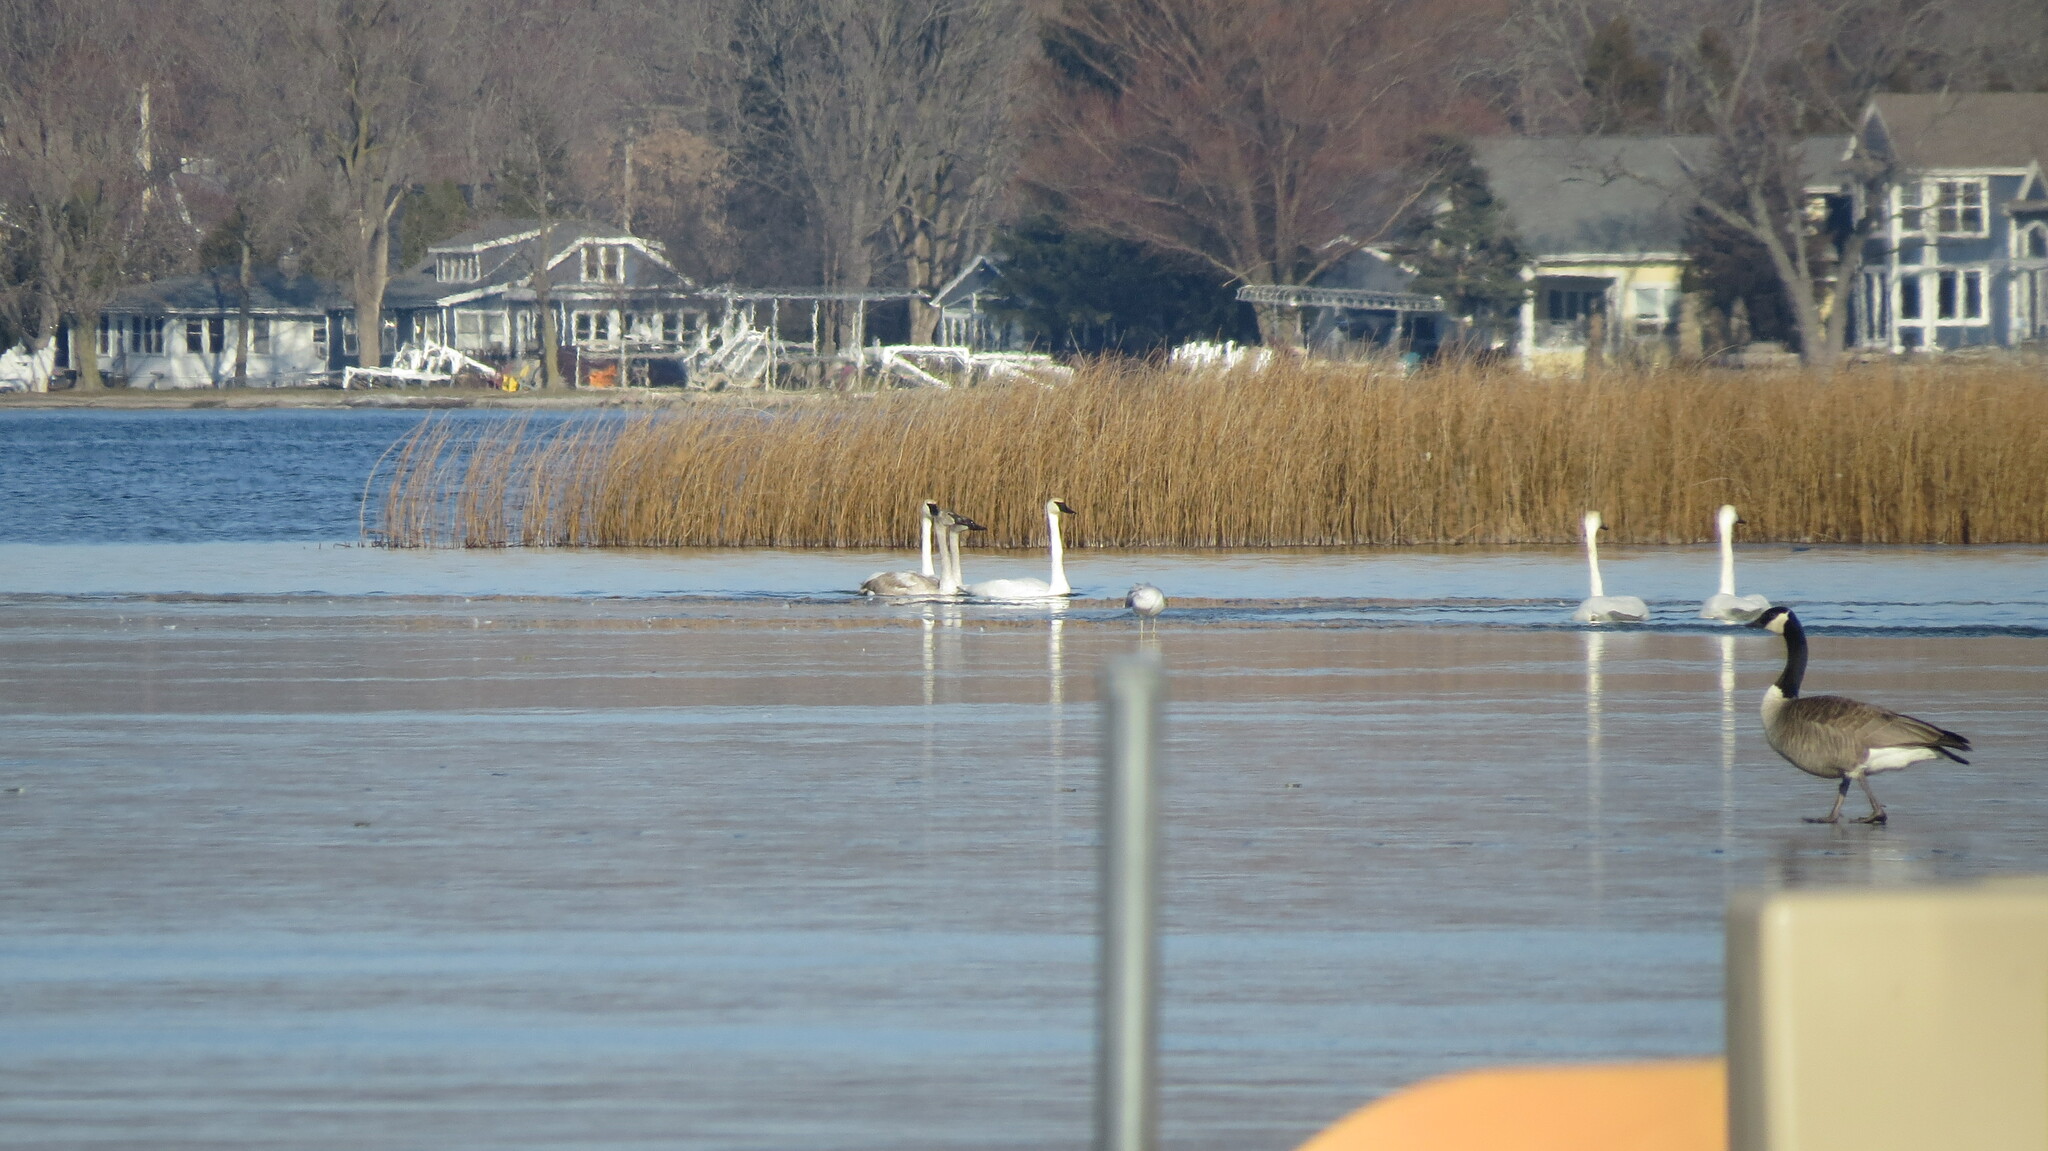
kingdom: Animalia
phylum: Chordata
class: Aves
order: Charadriiformes
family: Laridae
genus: Larus
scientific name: Larus delawarensis
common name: Ring-billed gull
